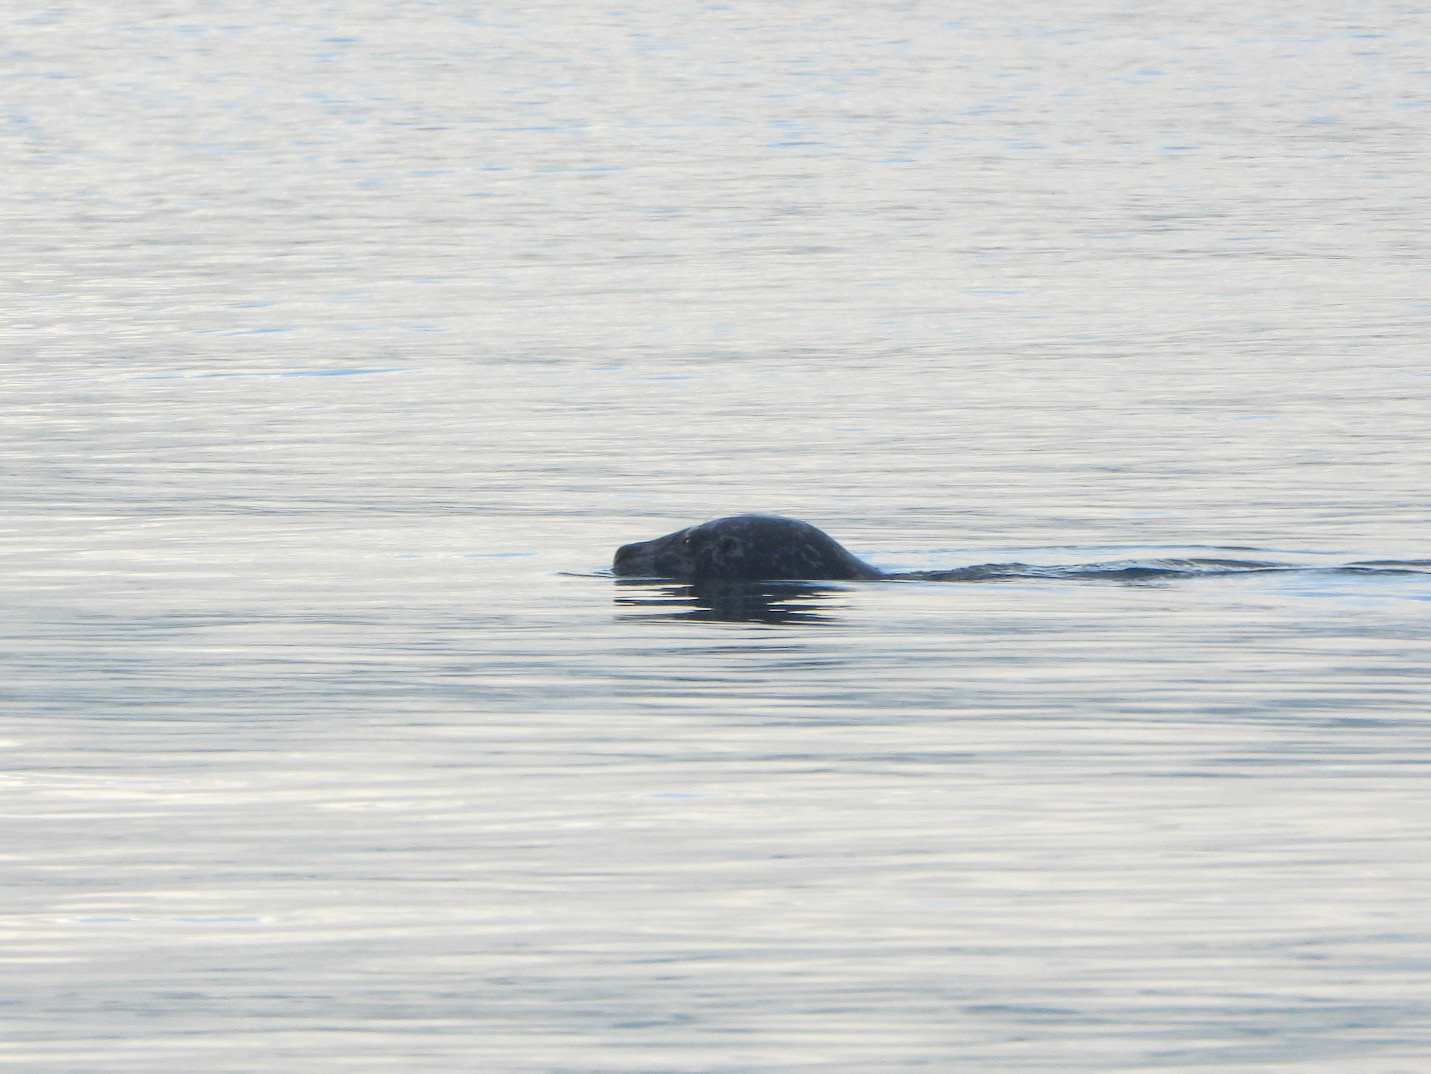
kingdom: Animalia
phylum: Chordata
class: Mammalia
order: Carnivora
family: Phocidae
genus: Phoca
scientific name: Phoca vitulina
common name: Harbor seal
